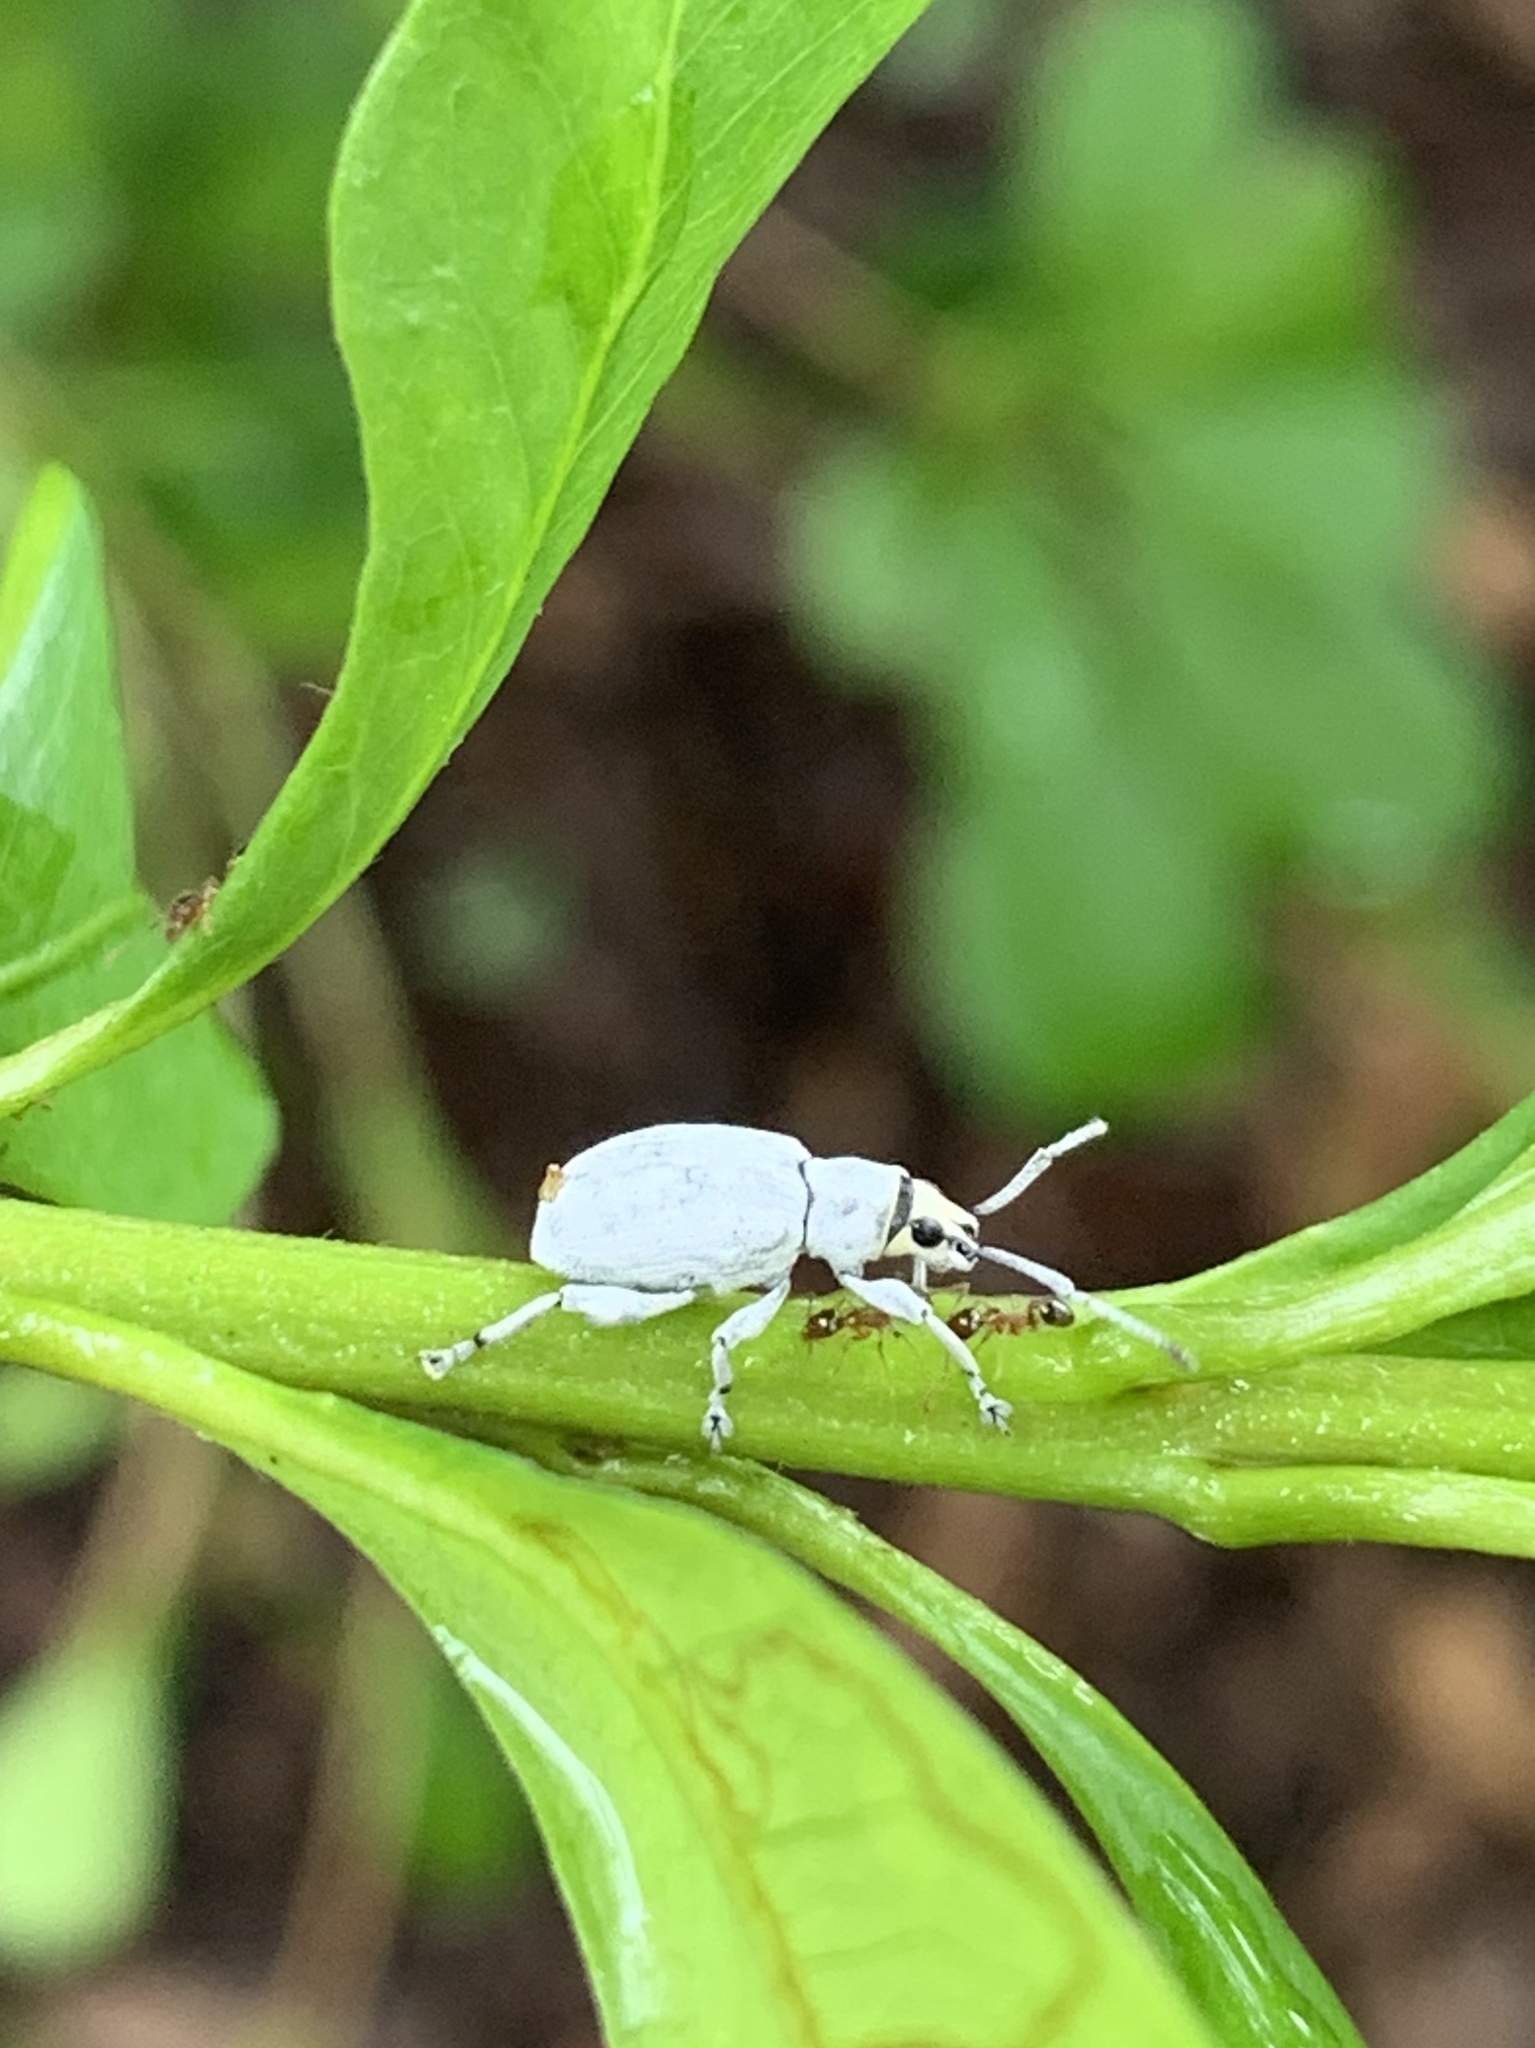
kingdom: Animalia
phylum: Arthropoda
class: Insecta
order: Coleoptera
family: Curculionidae
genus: Myllocerus
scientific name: Myllocerus undecimpustulatus
